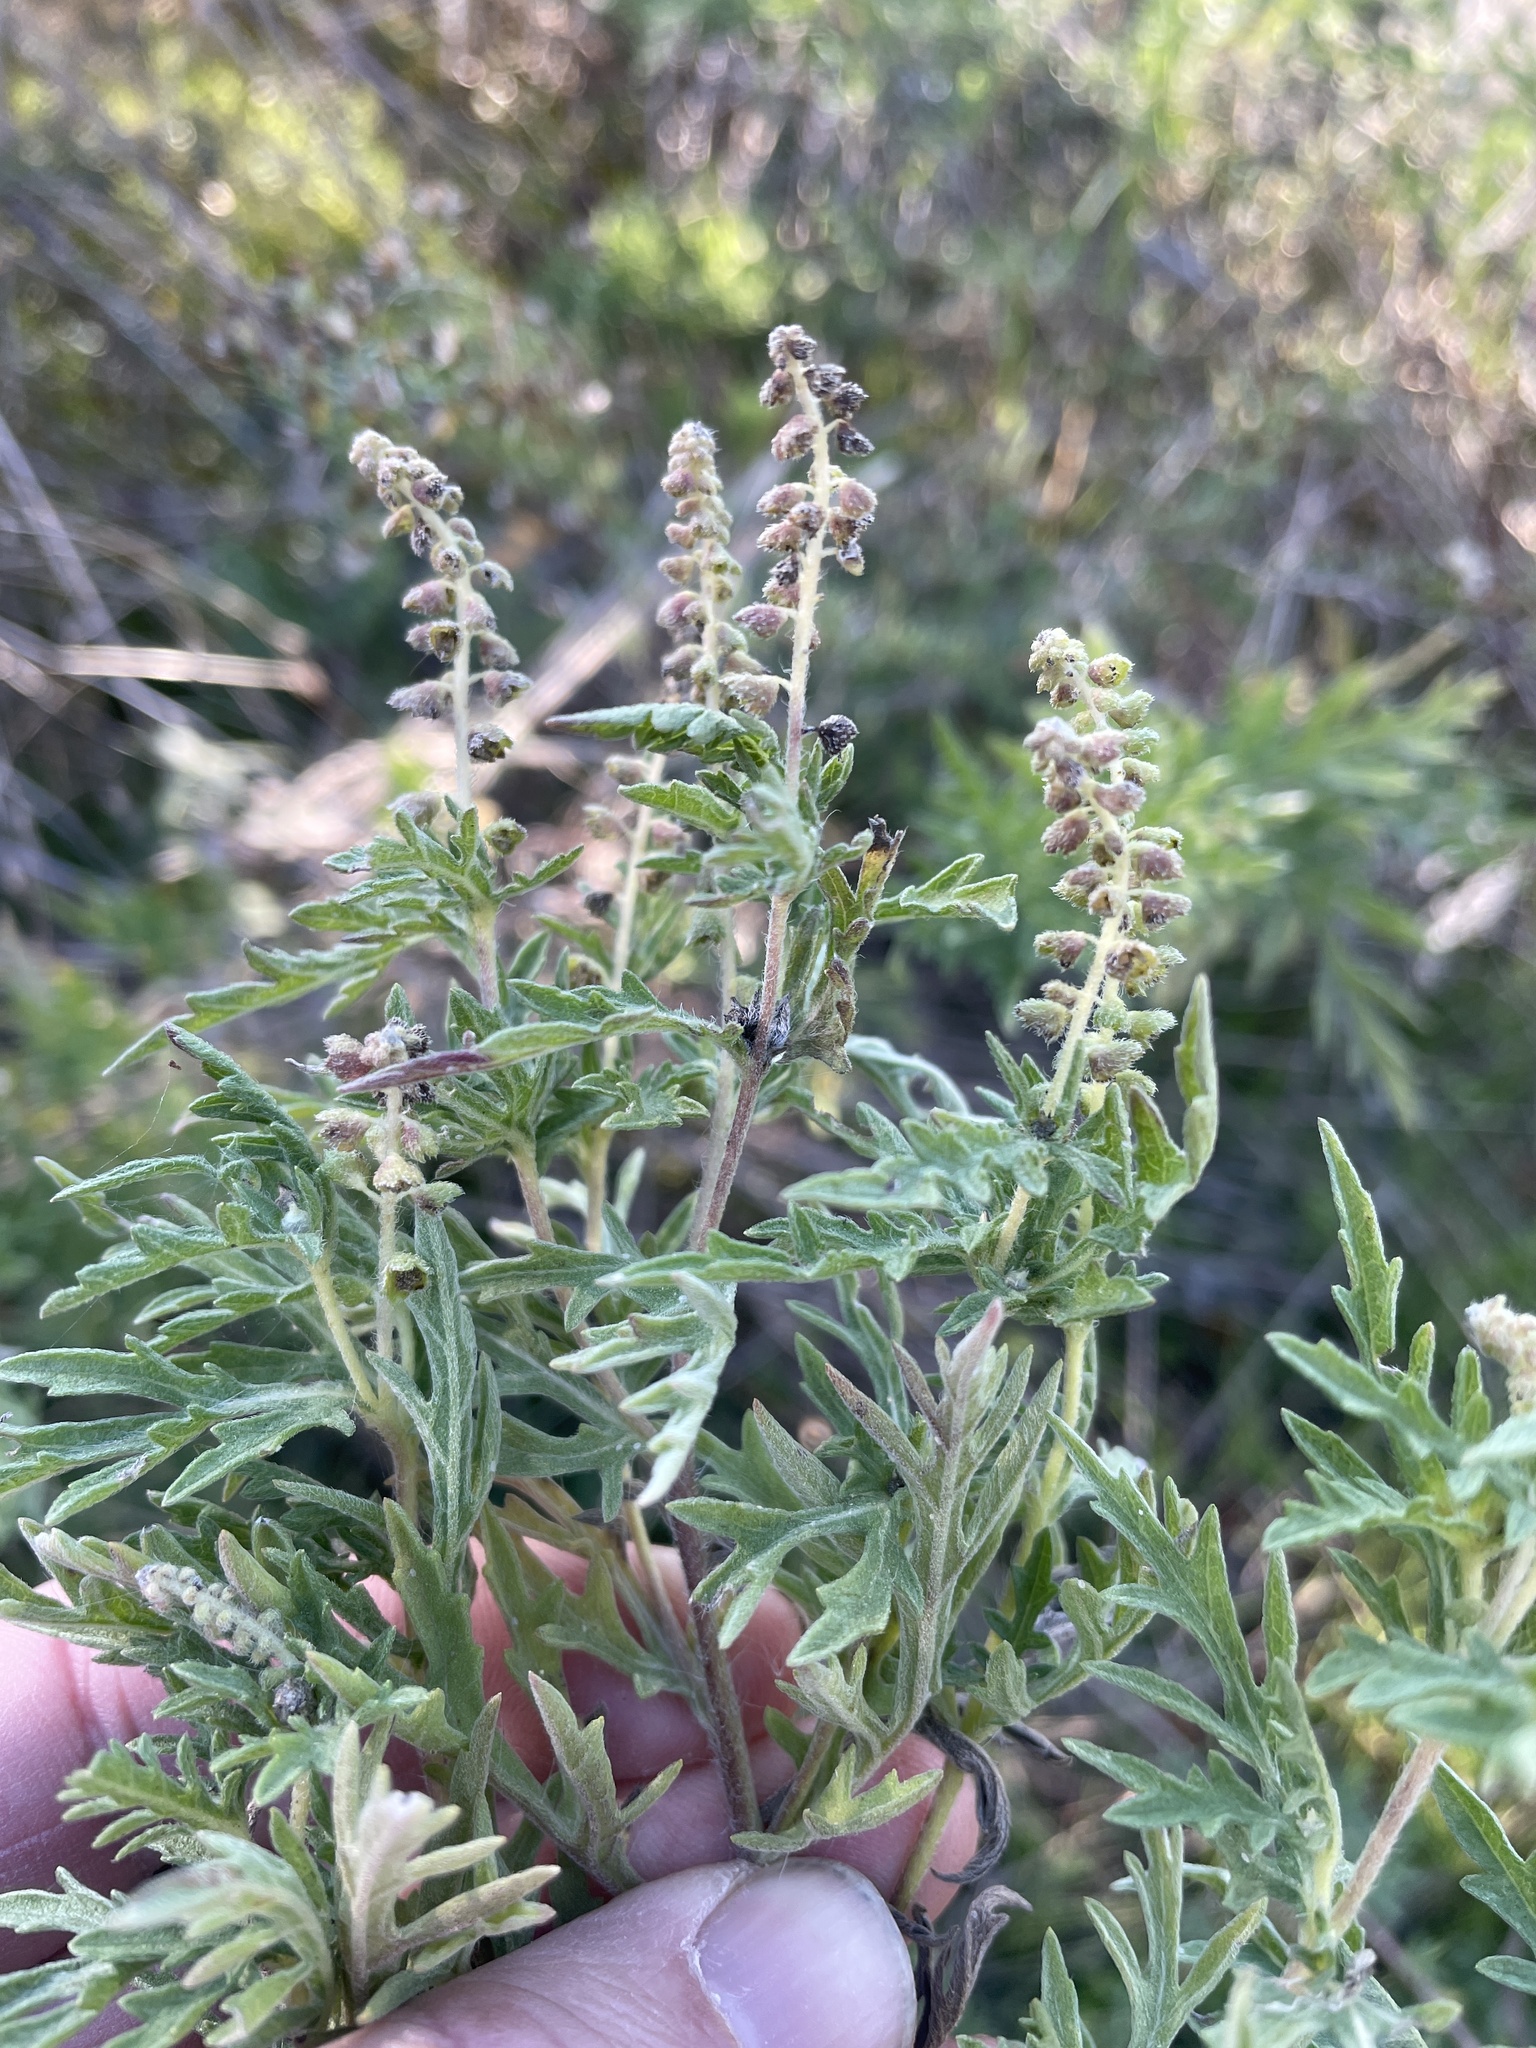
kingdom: Plantae
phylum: Tracheophyta
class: Magnoliopsida
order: Asterales
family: Asteraceae
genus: Ambrosia
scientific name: Ambrosia psilostachya
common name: Perennial ragweed
